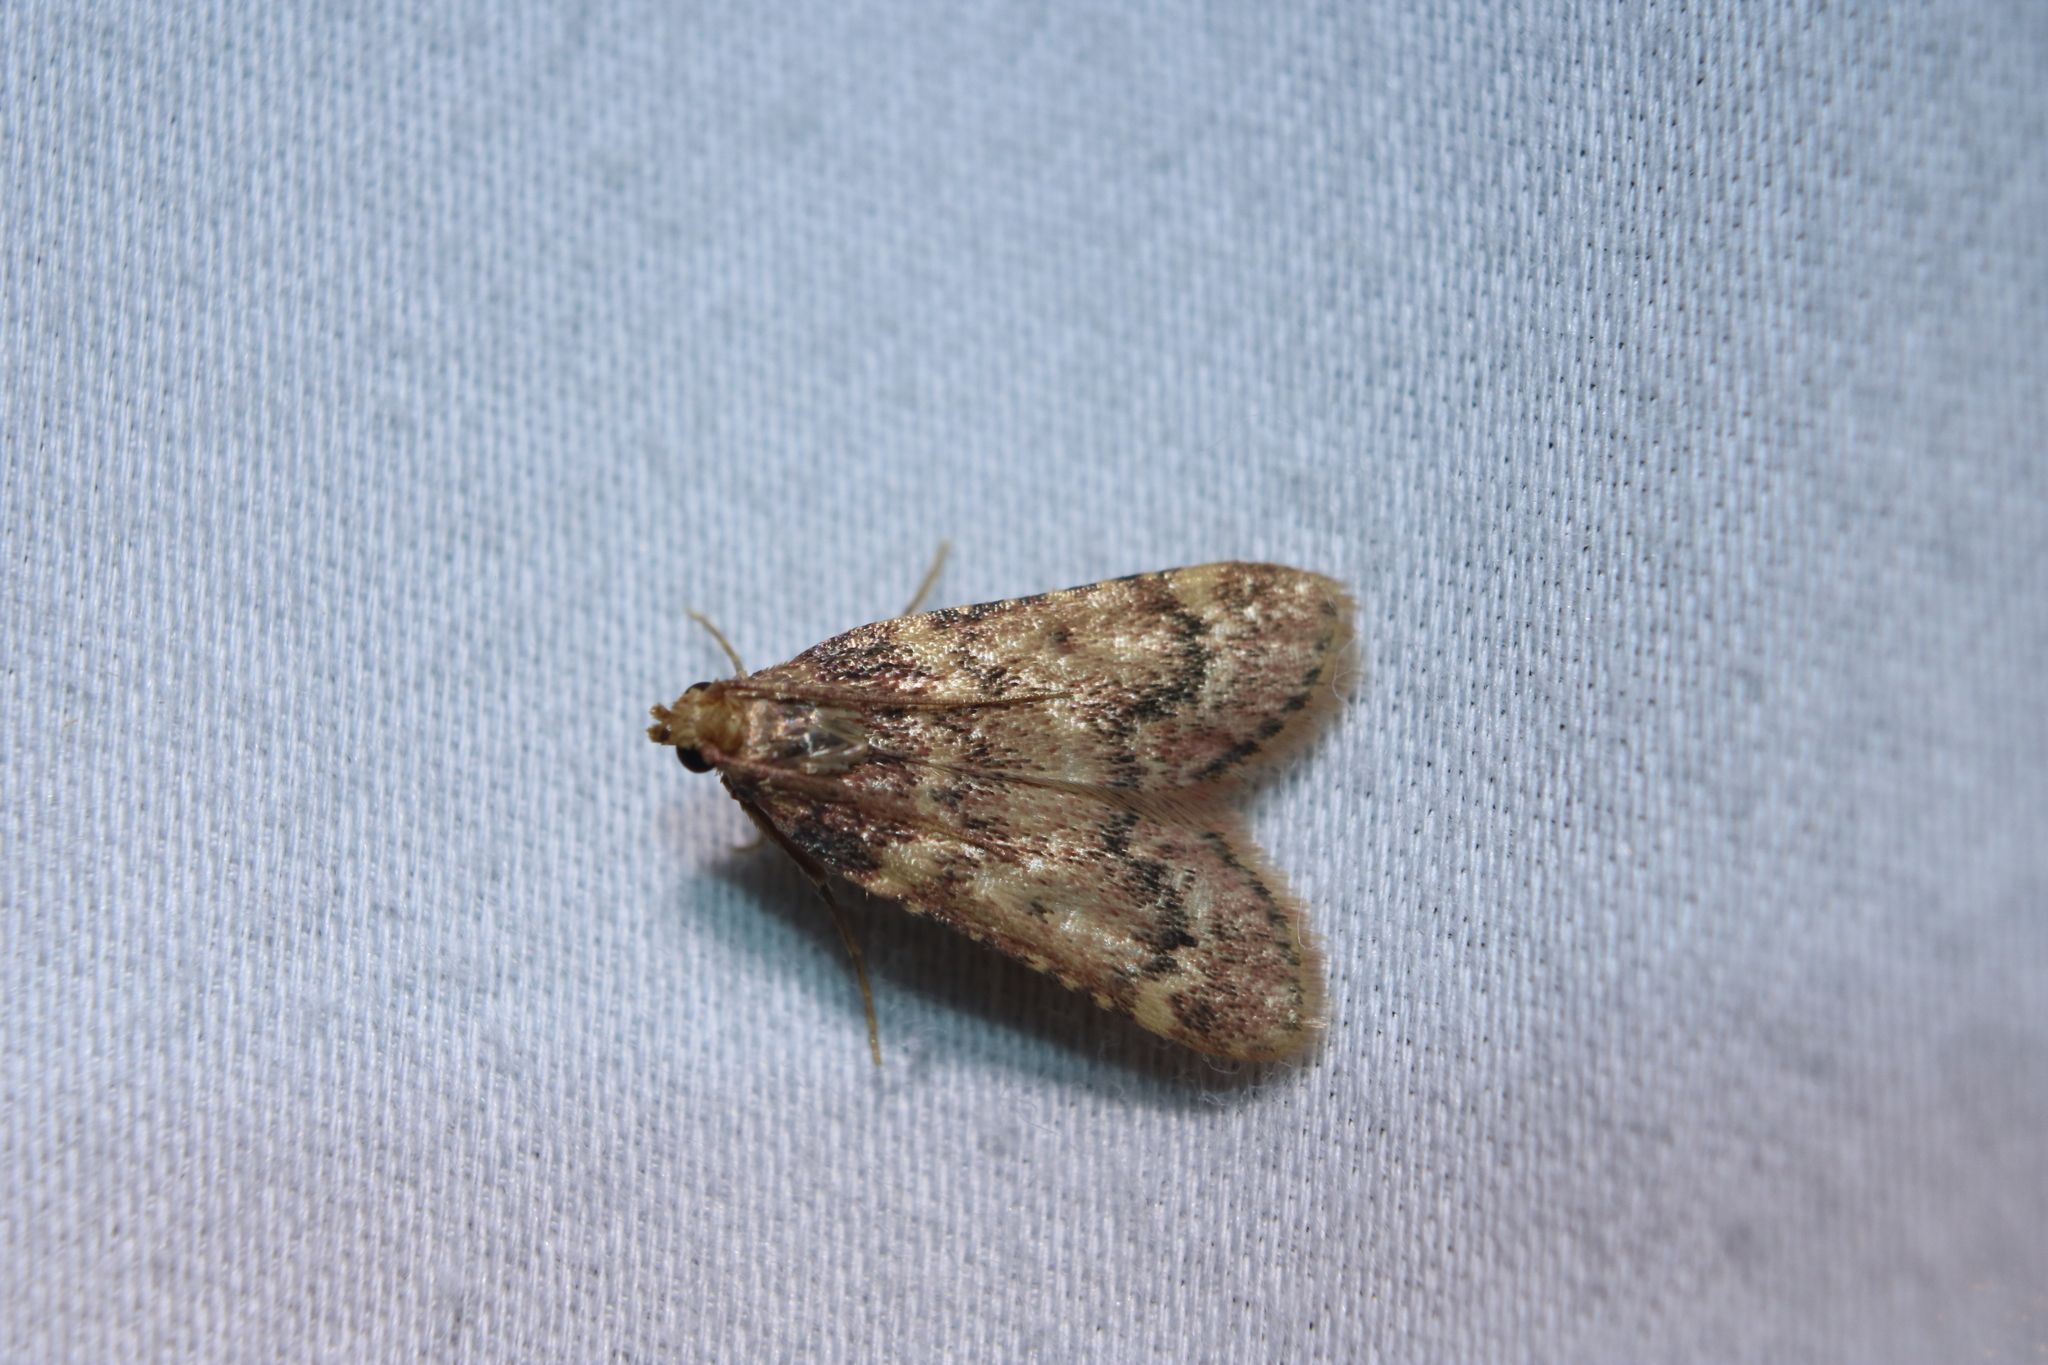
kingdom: Animalia
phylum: Arthropoda
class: Insecta
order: Lepidoptera
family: Pyralidae
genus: Aglossa
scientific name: Aglossa disciferalis
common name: Pink-masked pyralid moth
